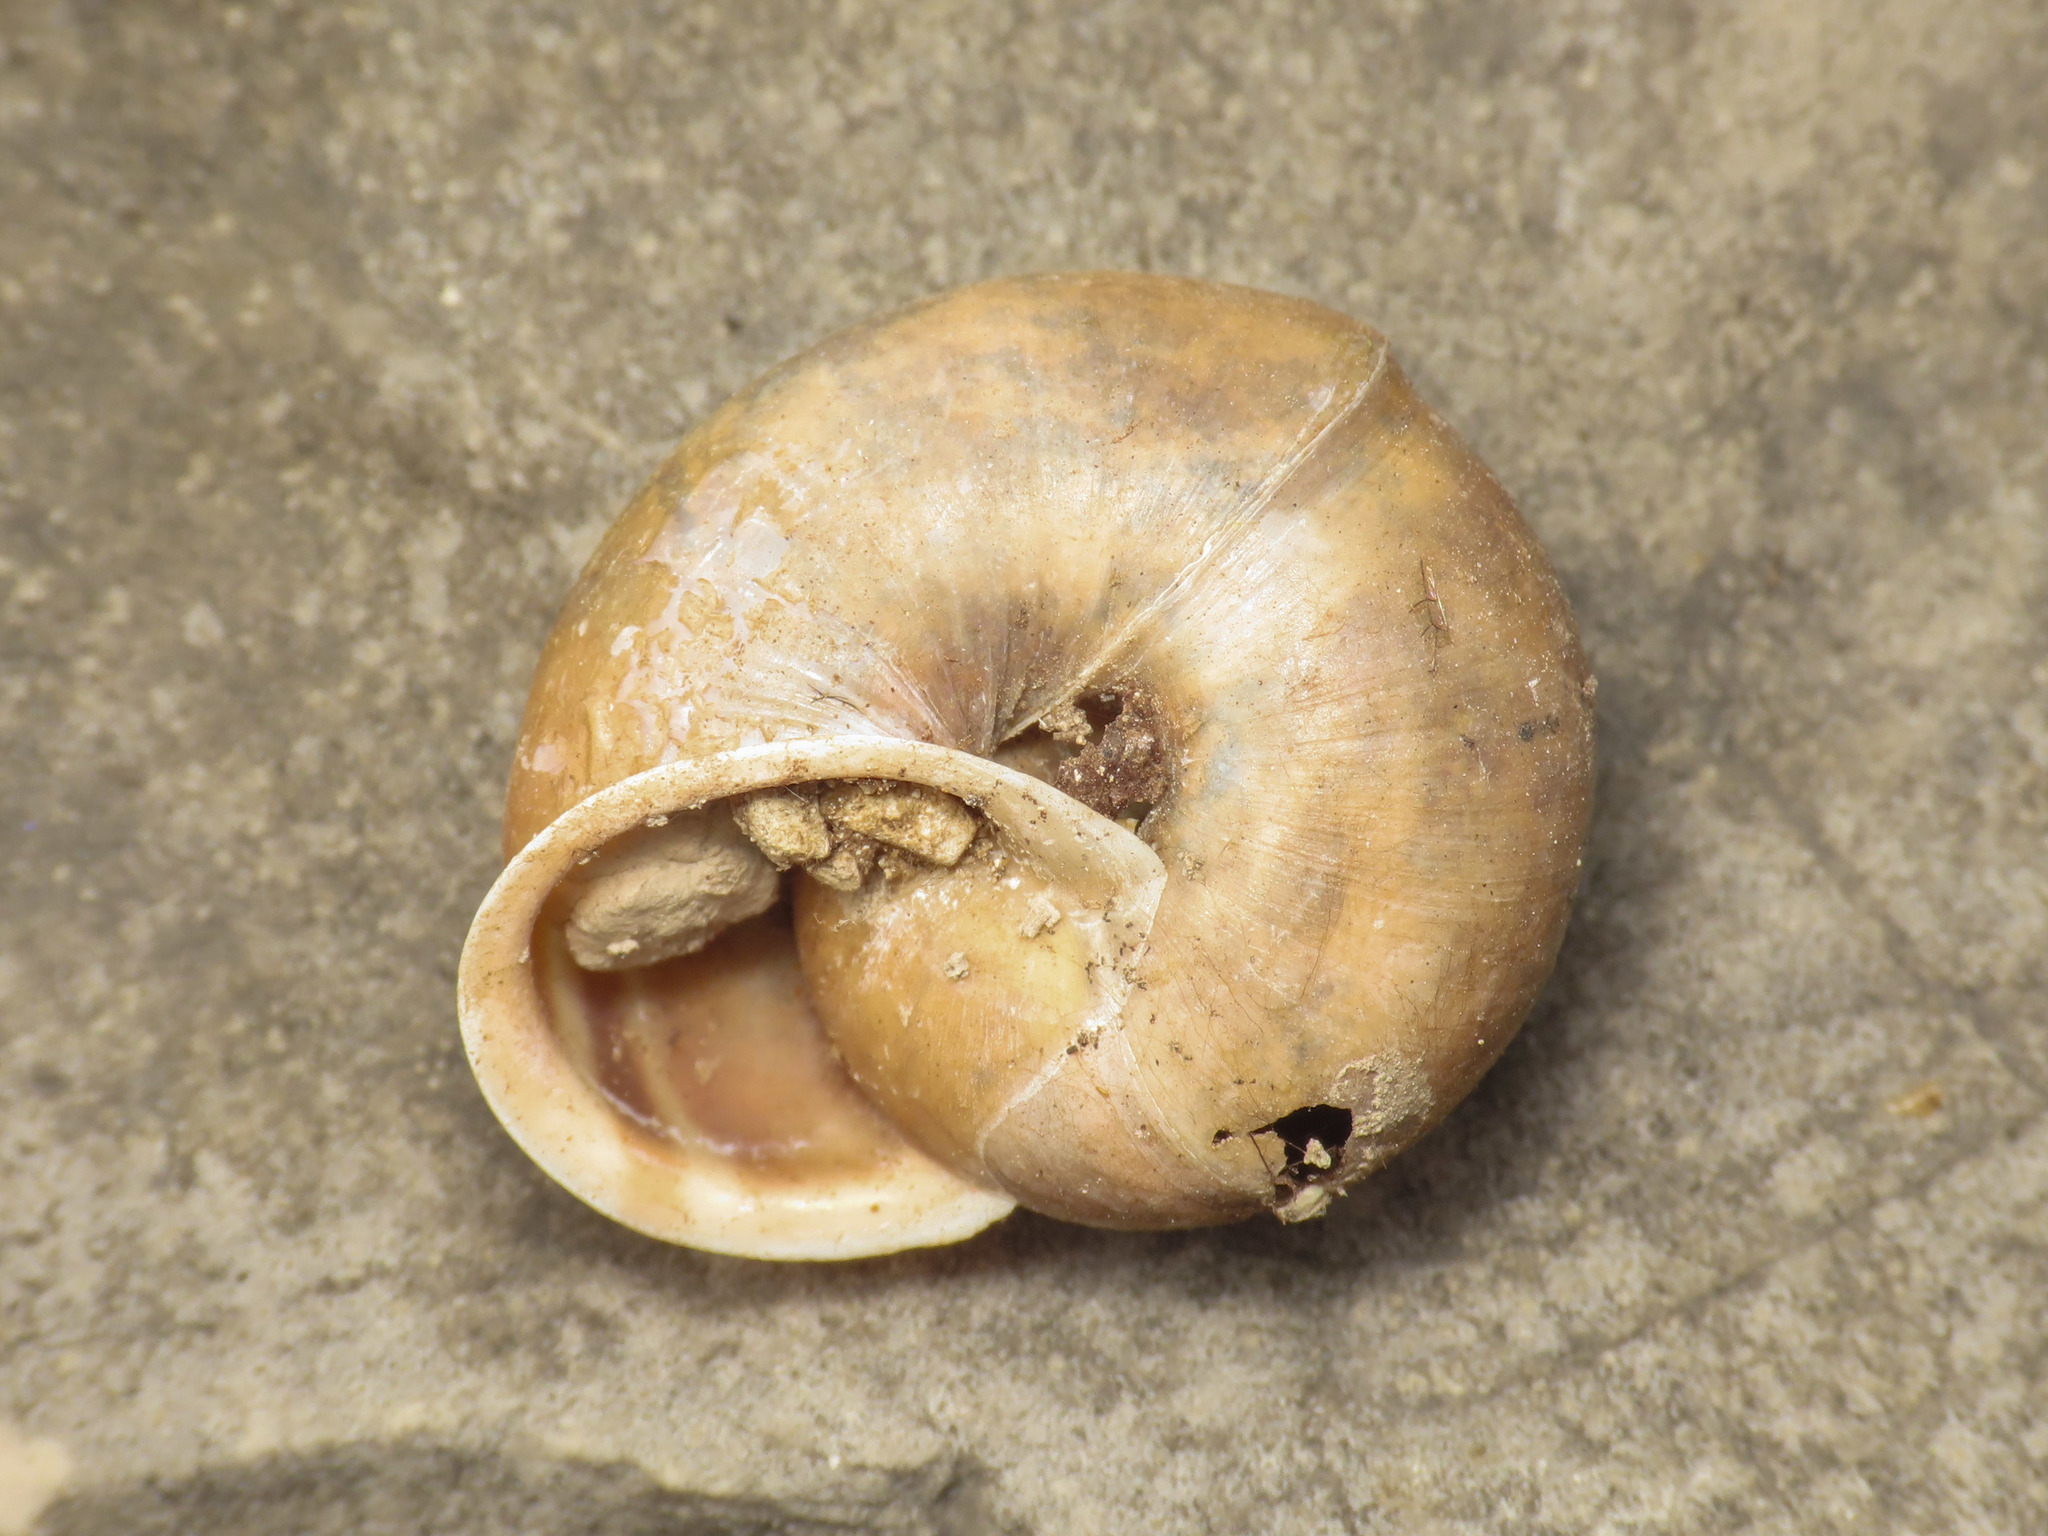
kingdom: Animalia
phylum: Mollusca
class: Gastropoda
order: Stylommatophora
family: Helicidae
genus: Campylaea
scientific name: Campylaea planospira
